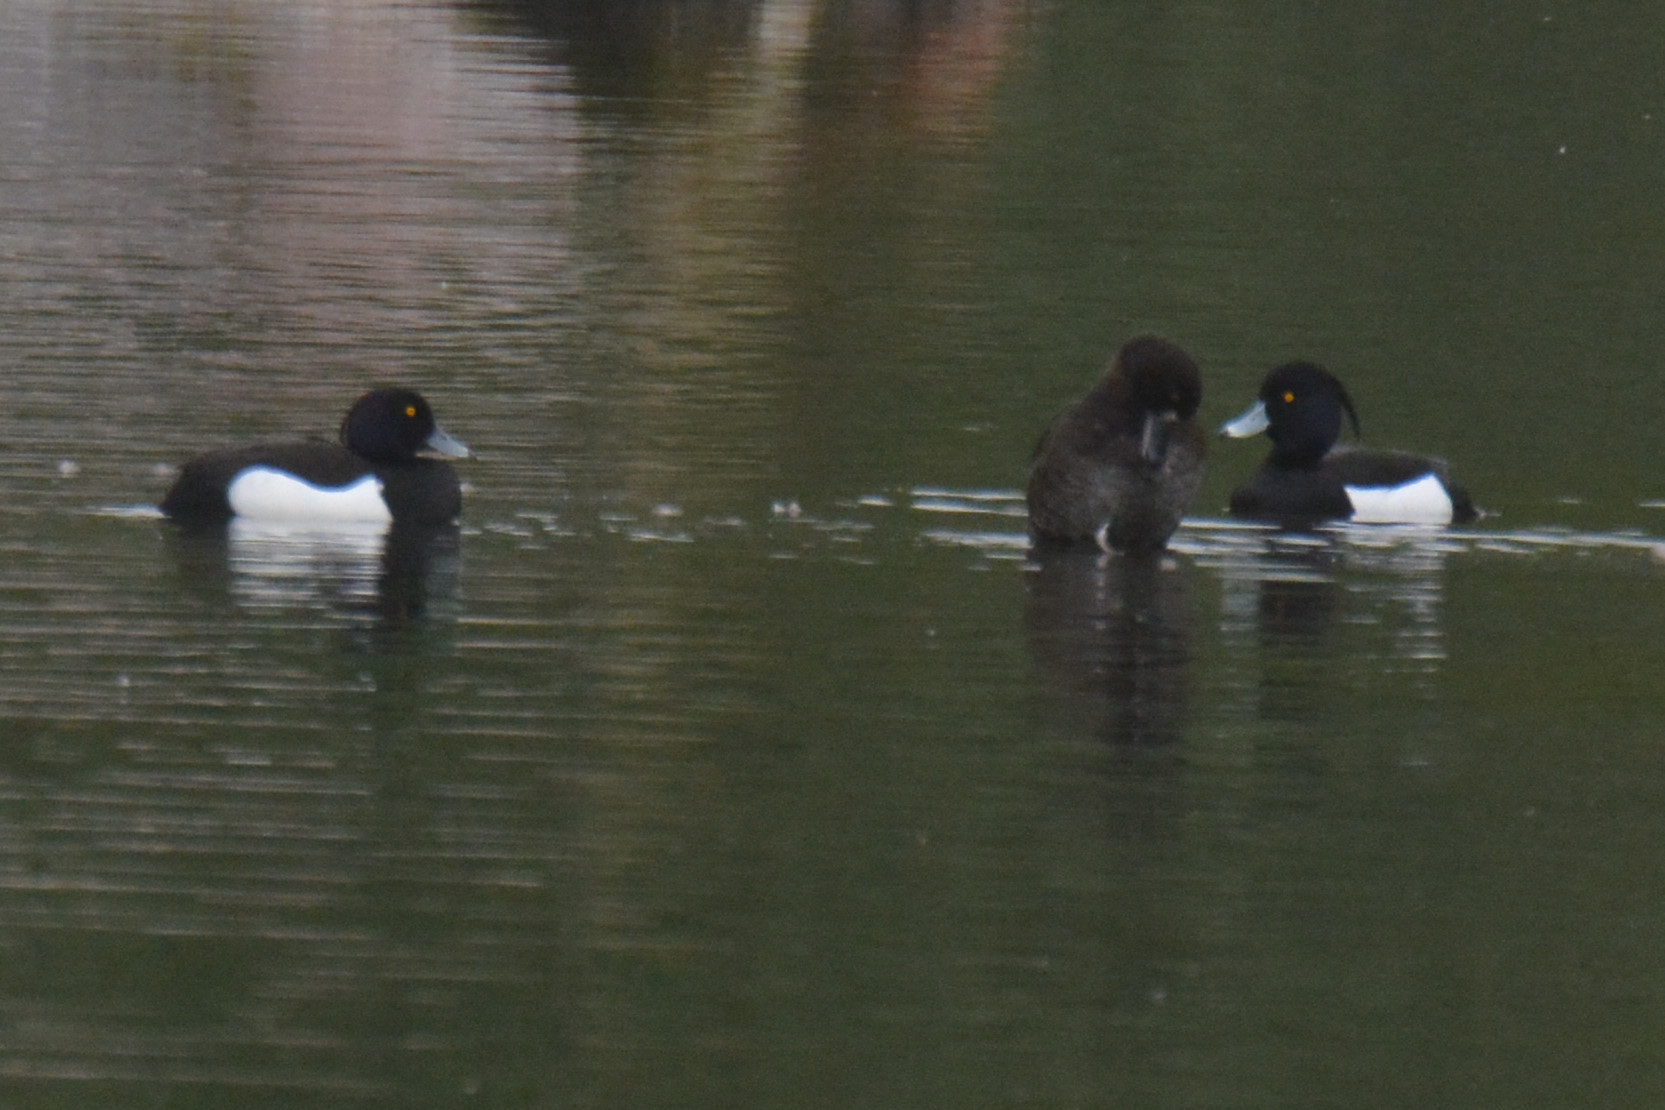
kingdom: Animalia
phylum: Chordata
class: Aves
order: Anseriformes
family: Anatidae
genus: Aythya
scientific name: Aythya fuligula
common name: Tufted duck
